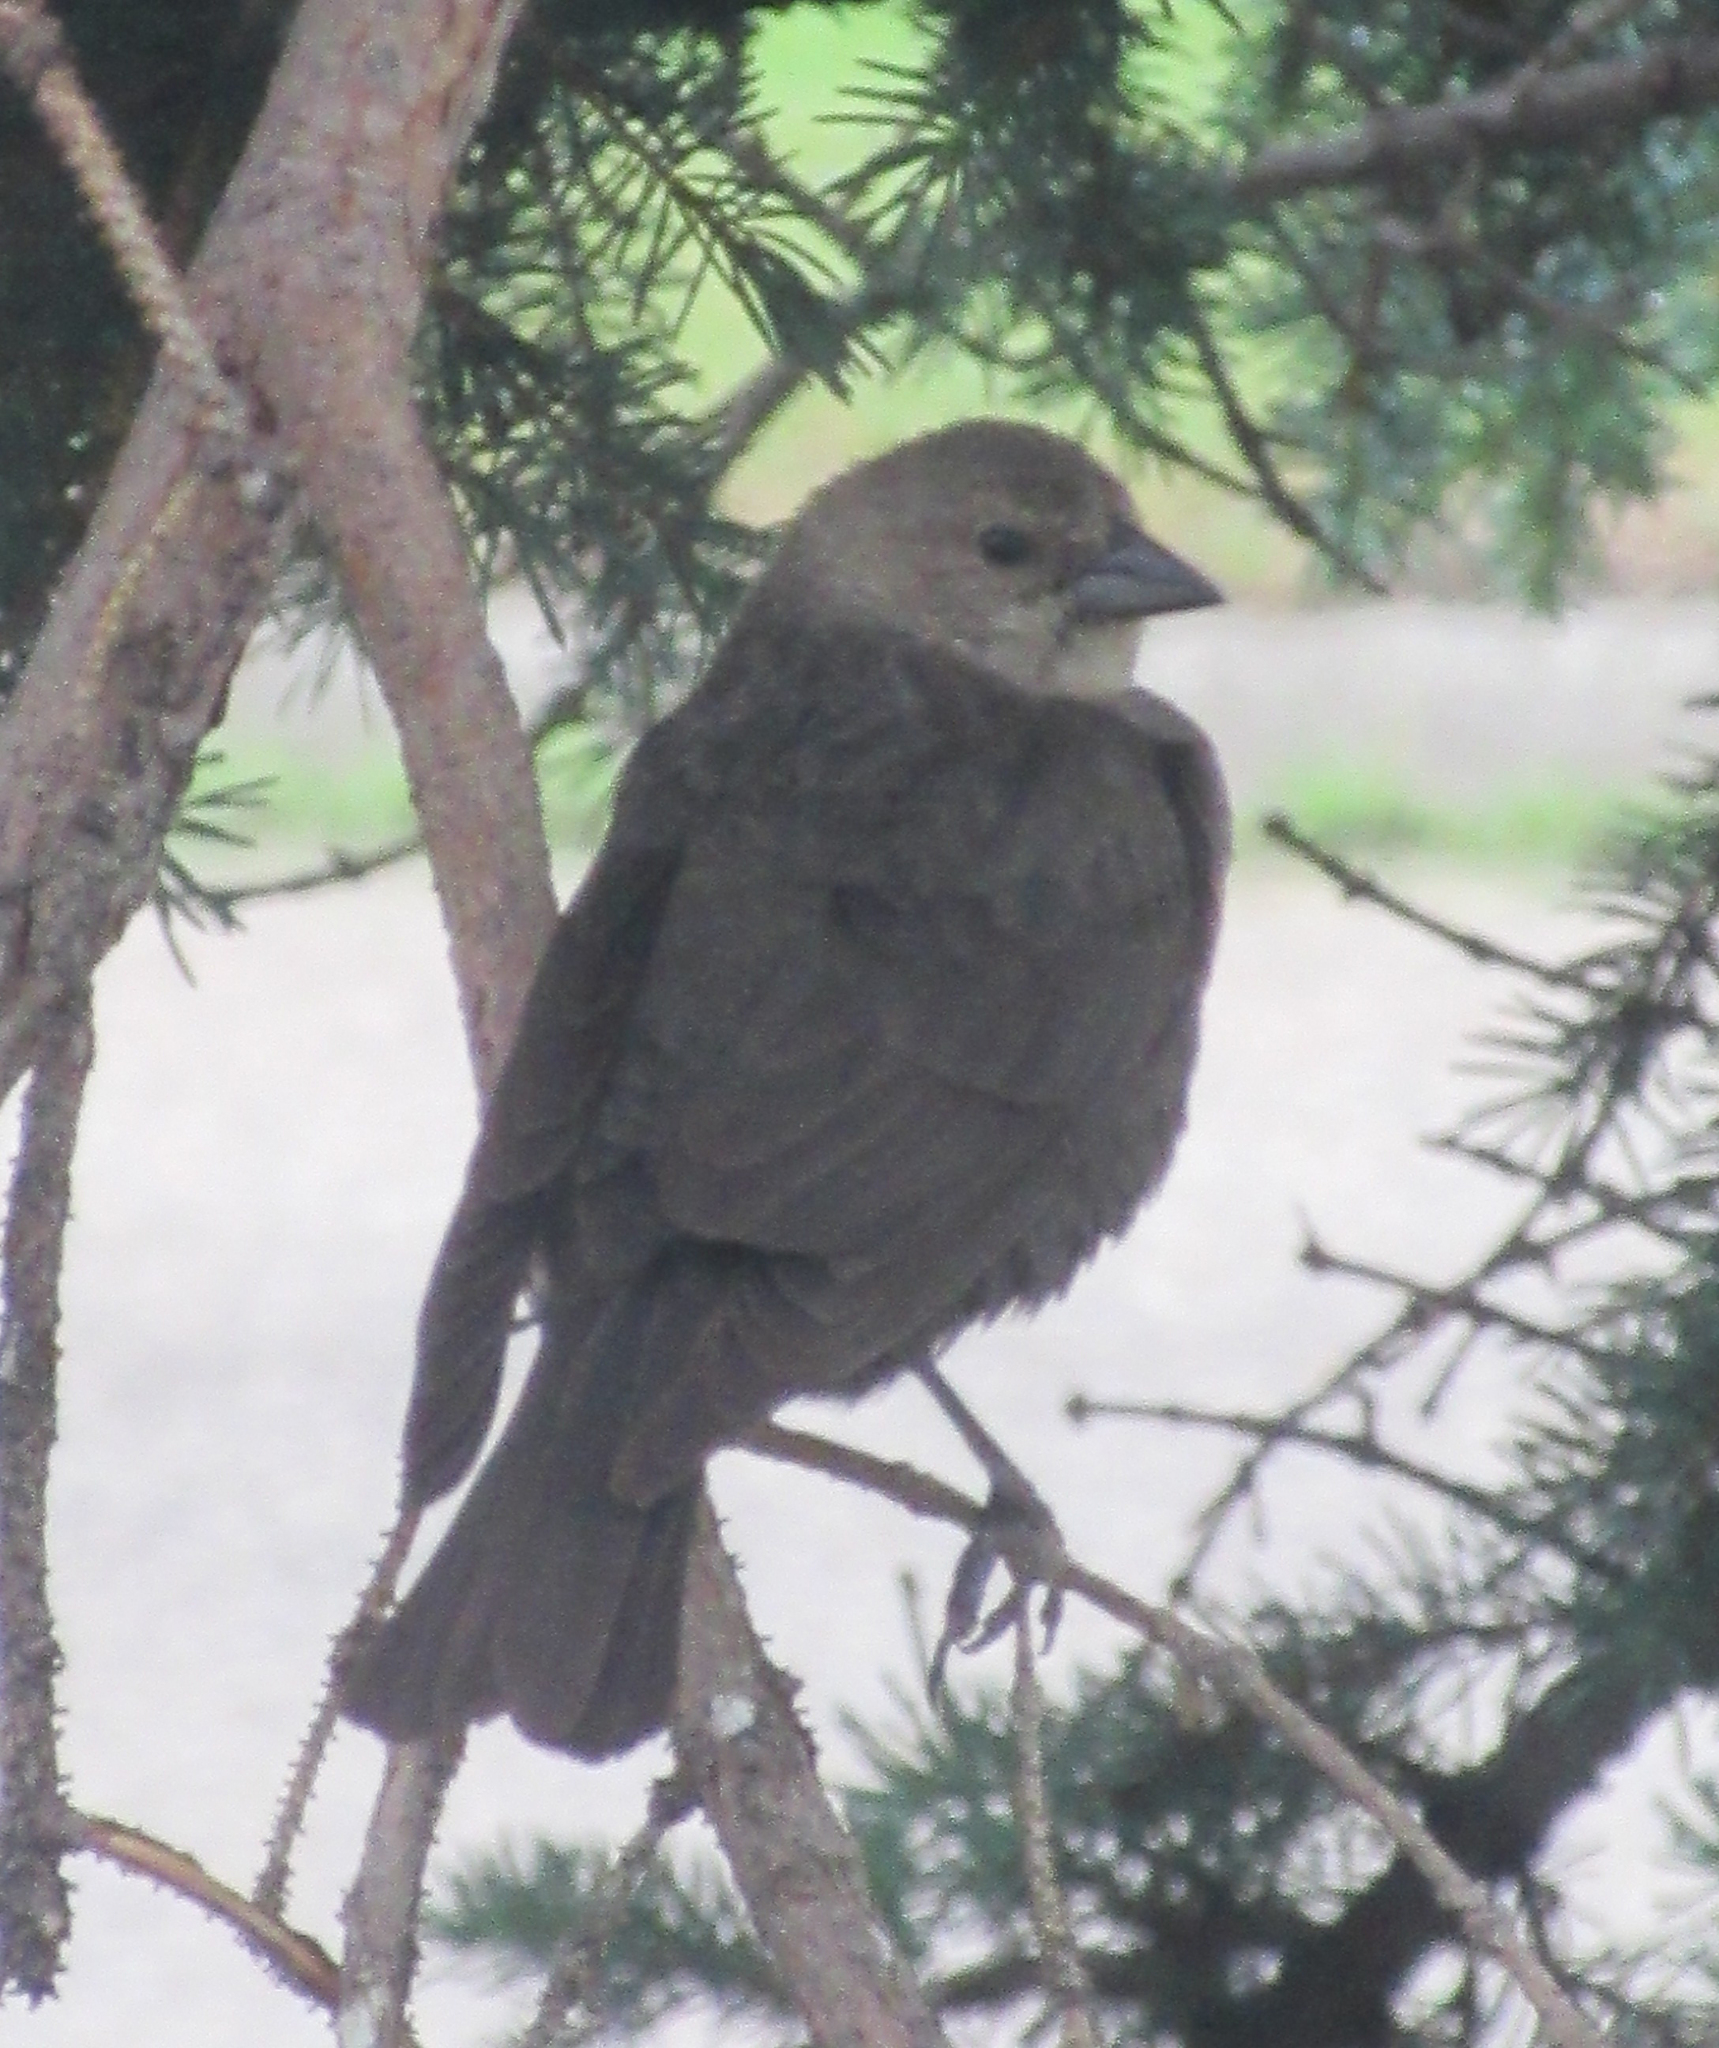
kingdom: Animalia
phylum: Chordata
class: Aves
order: Passeriformes
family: Icteridae
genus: Molothrus
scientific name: Molothrus ater
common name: Brown-headed cowbird
